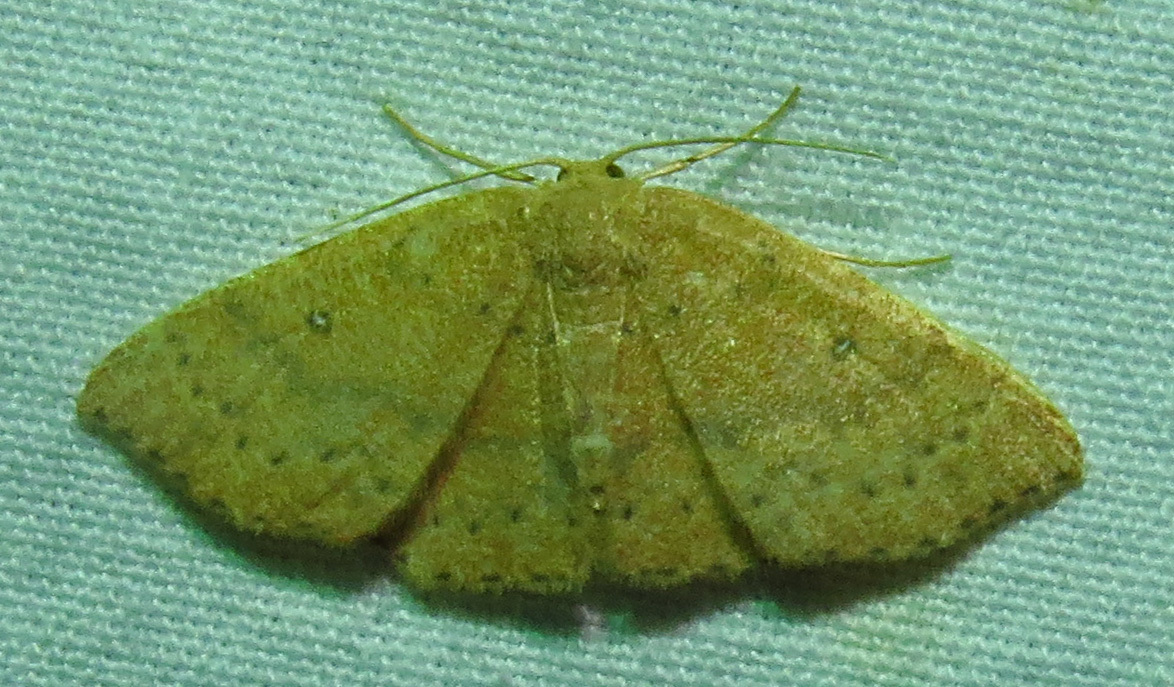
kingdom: Animalia
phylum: Arthropoda
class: Insecta
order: Lepidoptera
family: Geometridae
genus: Cyclophora
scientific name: Cyclophora packardi
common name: Packard's wave
